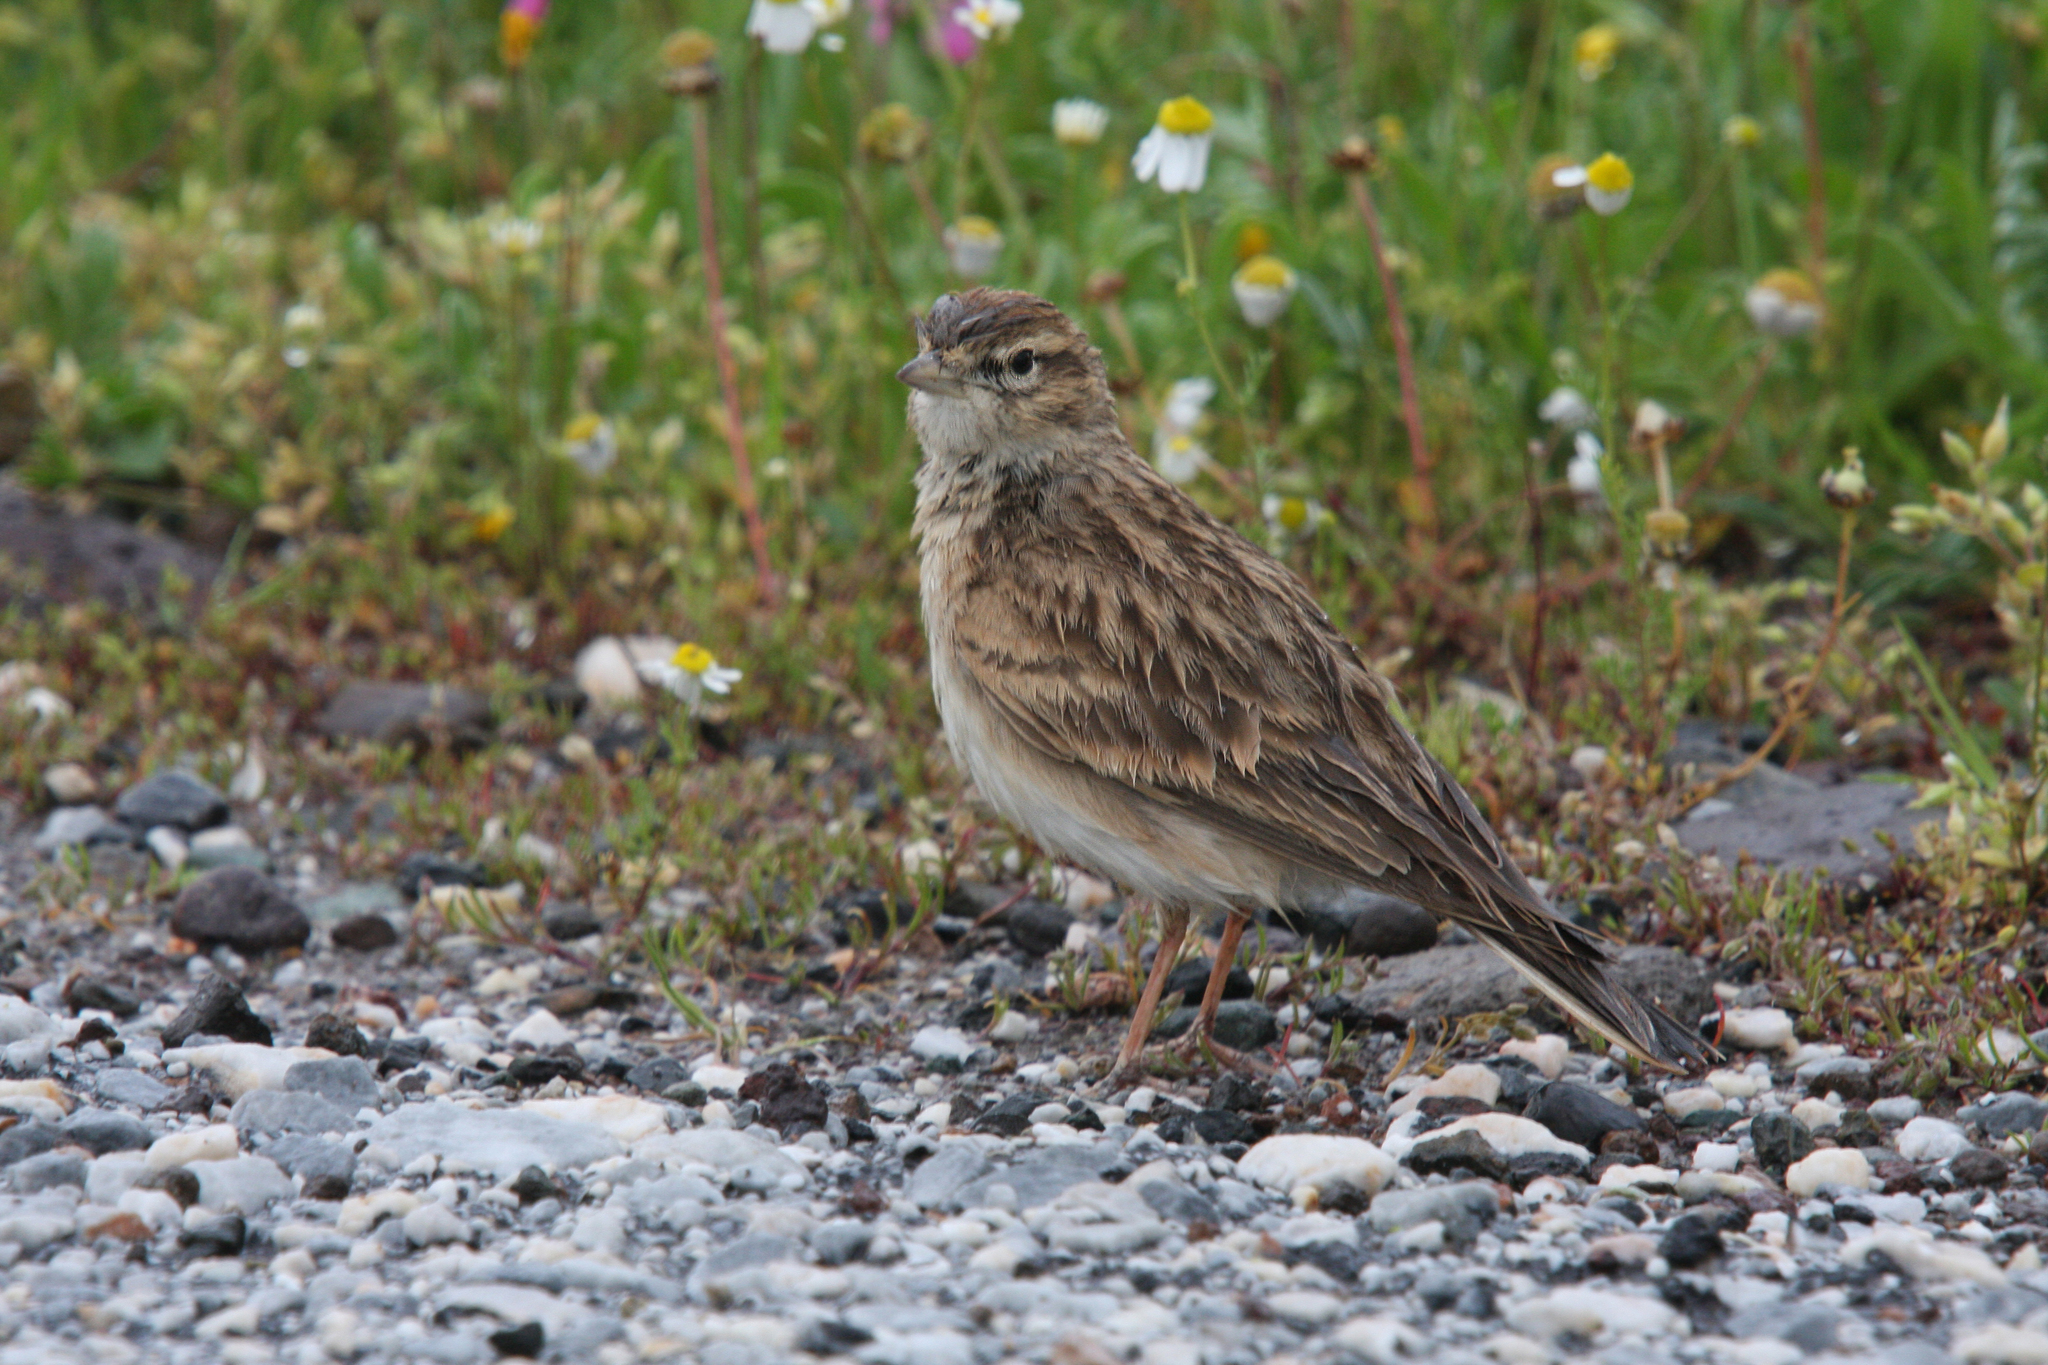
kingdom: Animalia
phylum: Chordata
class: Aves
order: Passeriformes
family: Alaudidae
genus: Calandrella
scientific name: Calandrella brachydactyla
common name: Greater short-toed lark
